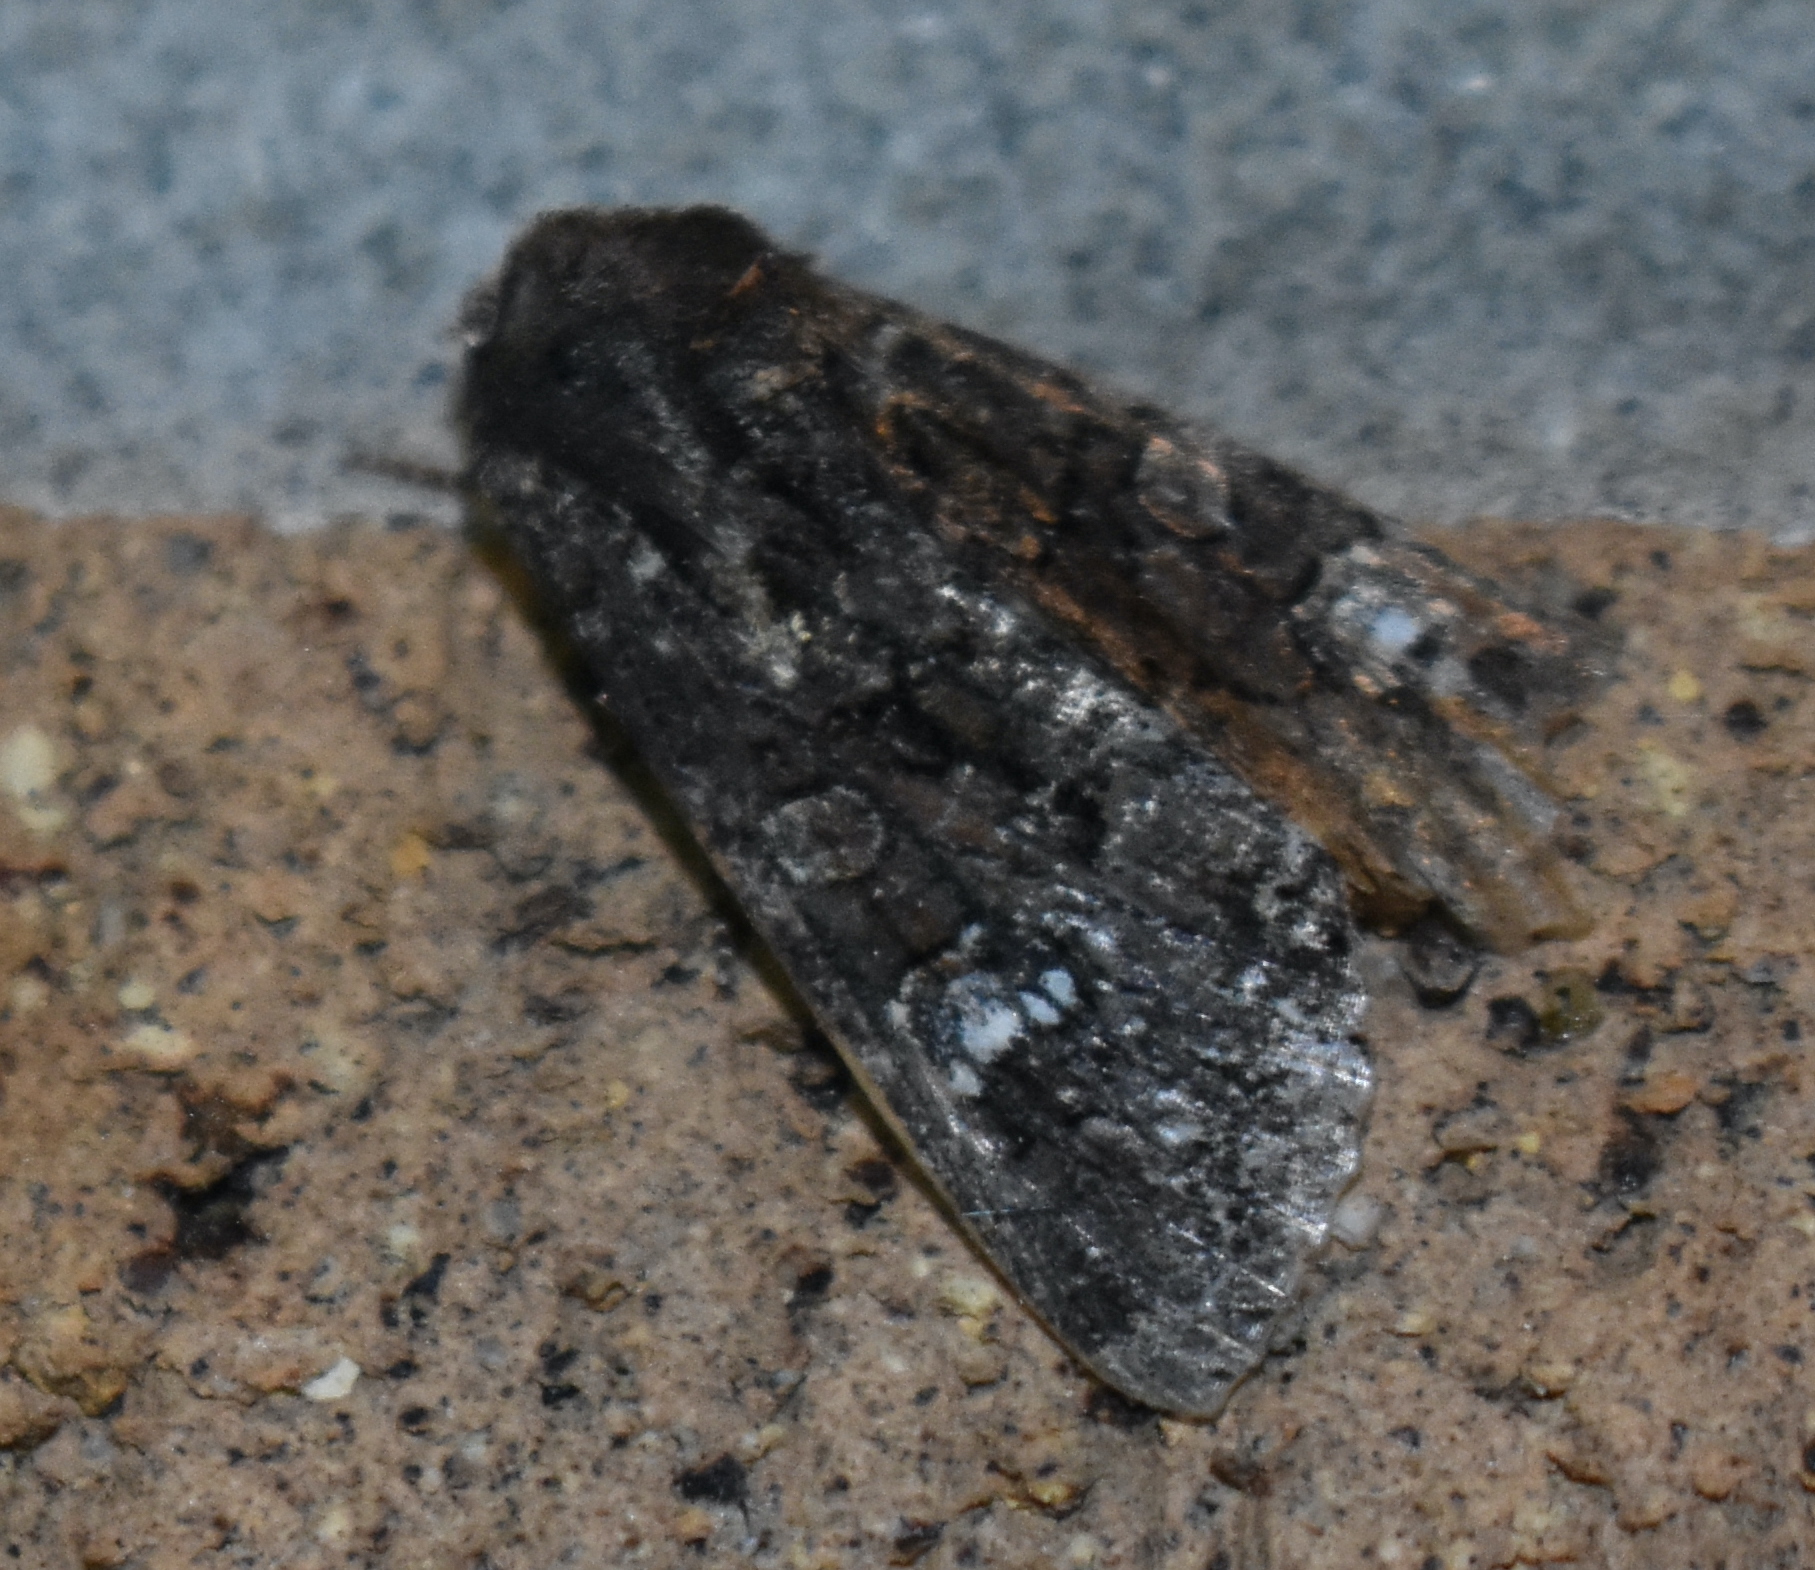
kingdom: Animalia
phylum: Arthropoda
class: Insecta
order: Lepidoptera
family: Noctuidae
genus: Apamea
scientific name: Apamea amputatrix
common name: Yellow-headed cutworm moth
